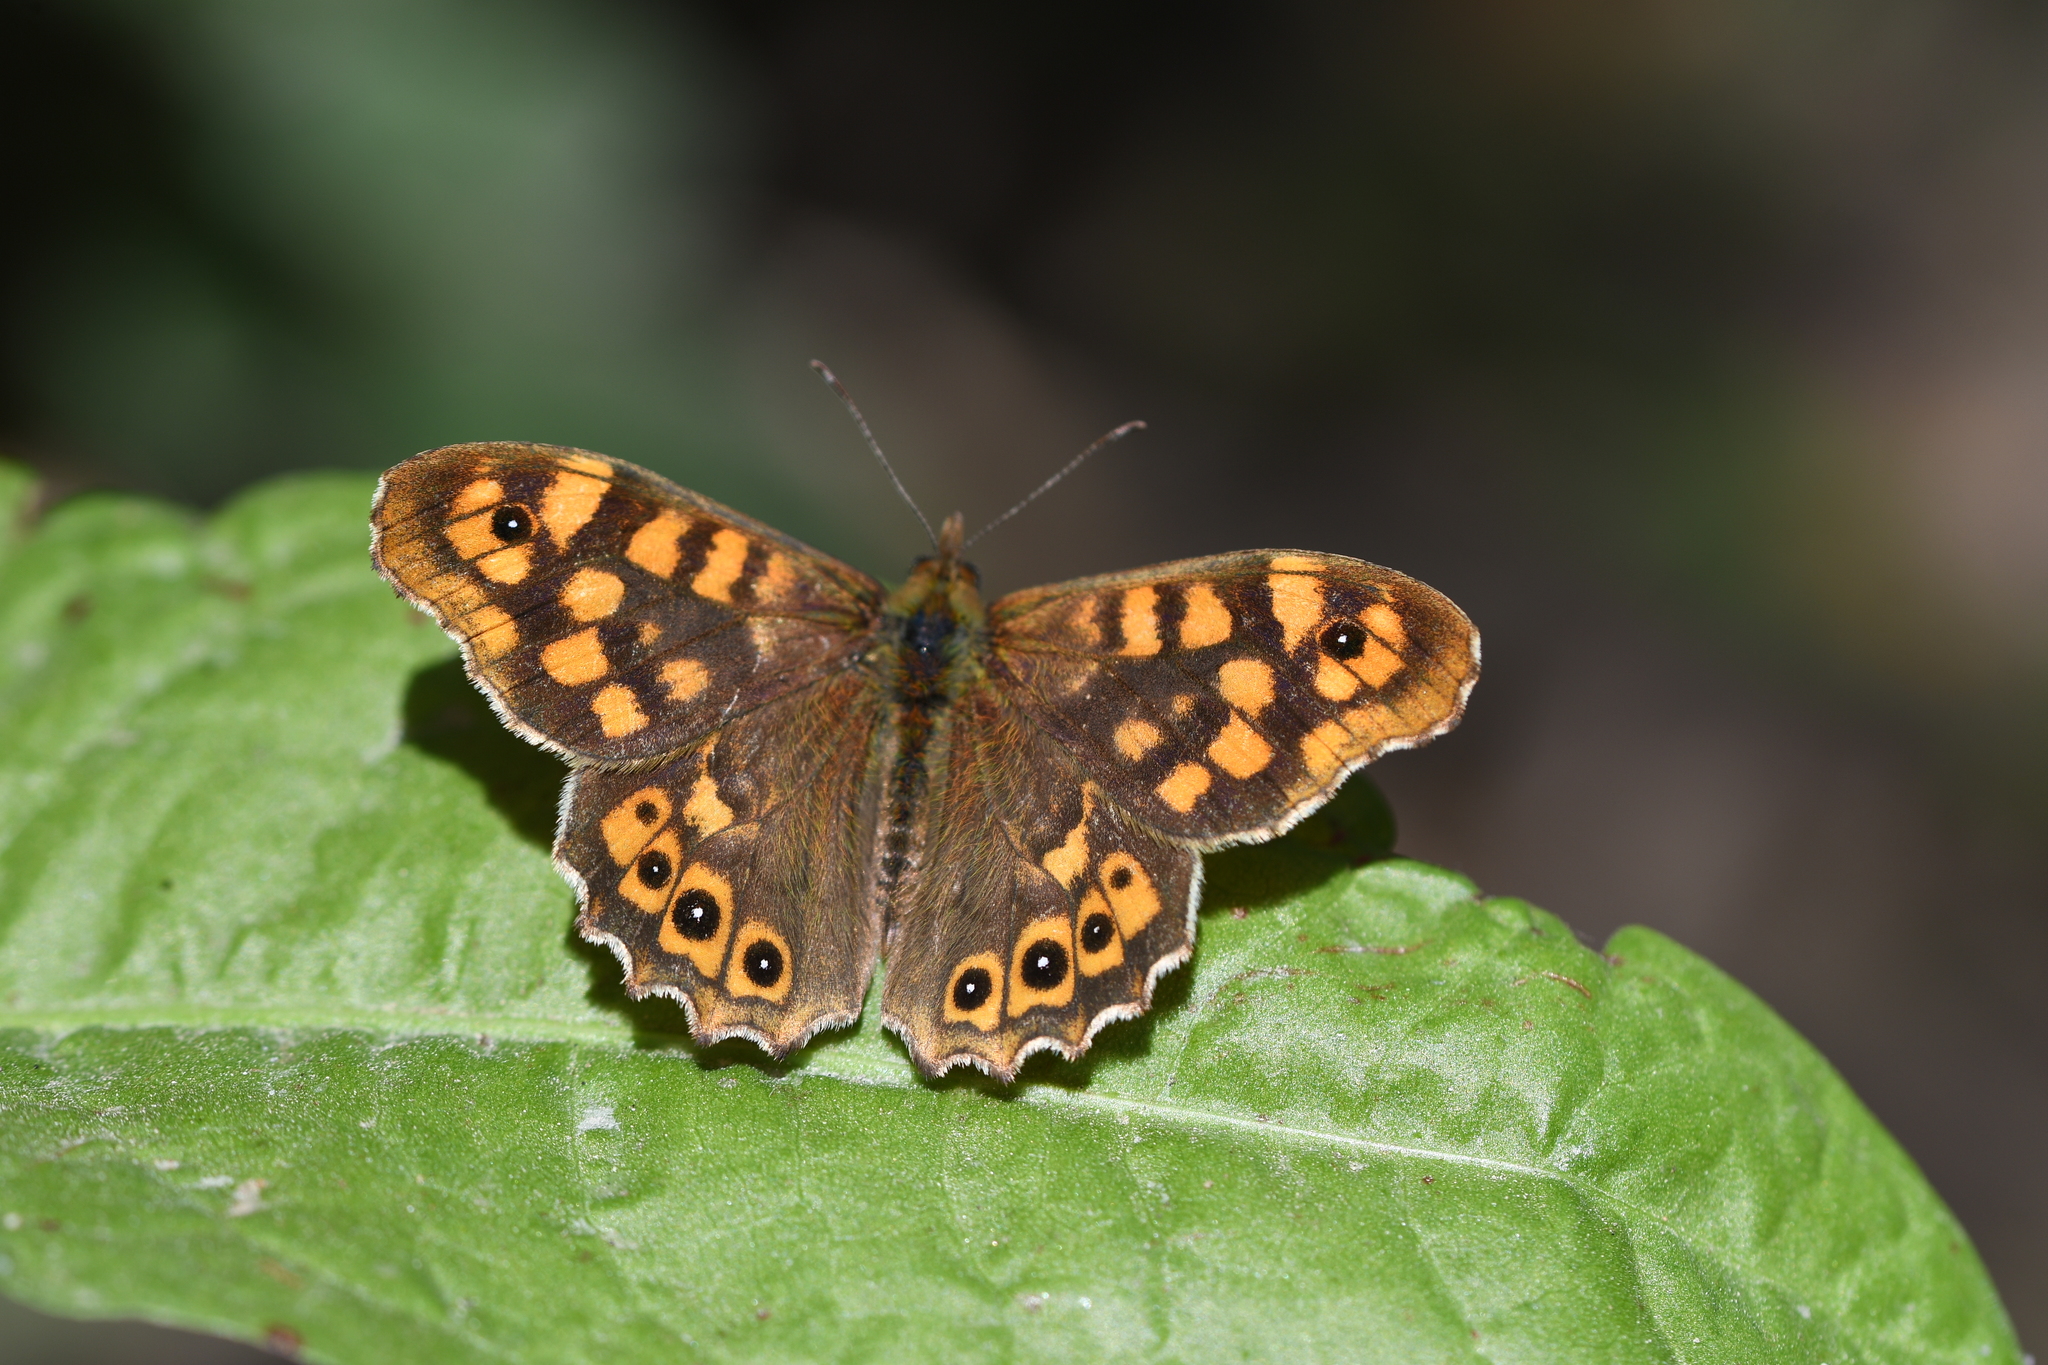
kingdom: Animalia
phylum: Arthropoda
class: Insecta
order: Lepidoptera
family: Nymphalidae
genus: Pararge
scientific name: Pararge aegeria
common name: Speckled wood
